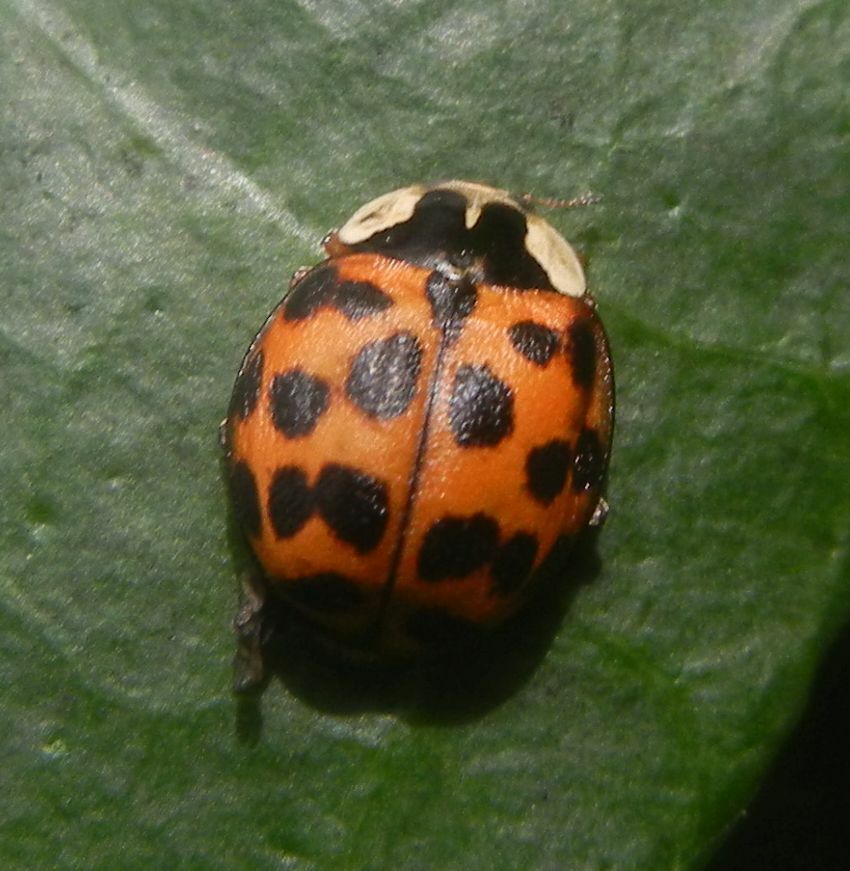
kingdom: Animalia
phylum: Arthropoda
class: Insecta
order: Coleoptera
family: Coccinellidae
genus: Harmonia
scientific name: Harmonia axyridis
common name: Harlequin ladybird
